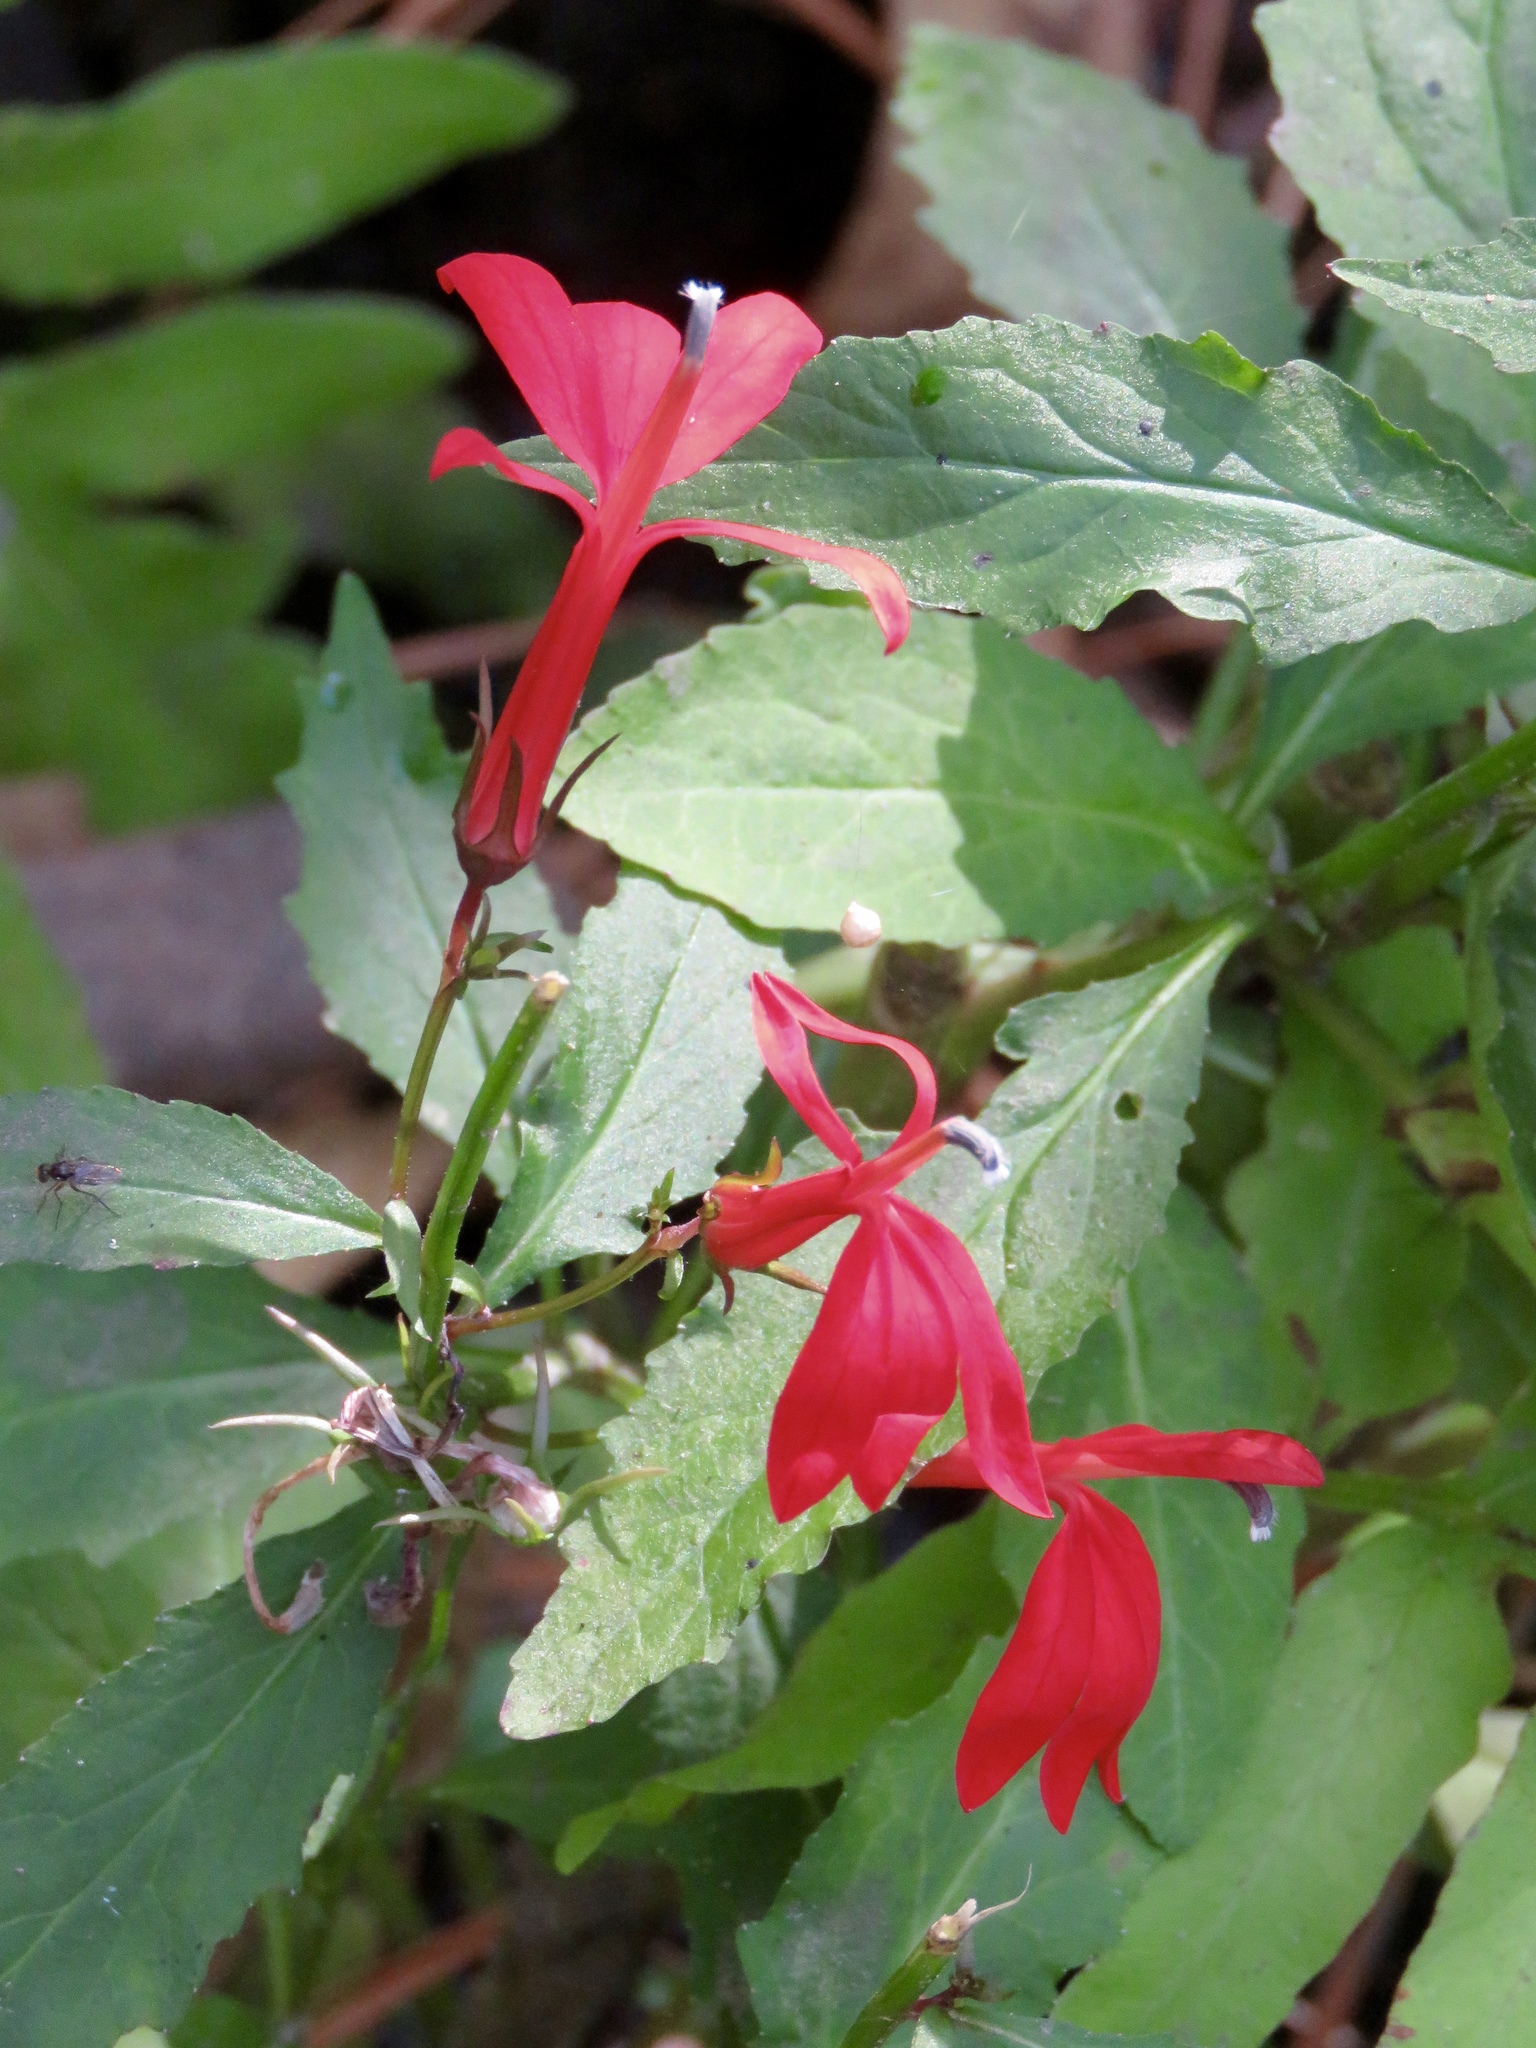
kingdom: Plantae
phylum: Tracheophyta
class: Magnoliopsida
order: Asterales
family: Campanulaceae
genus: Lobelia
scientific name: Lobelia cardinalis
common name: Cardinal flower
